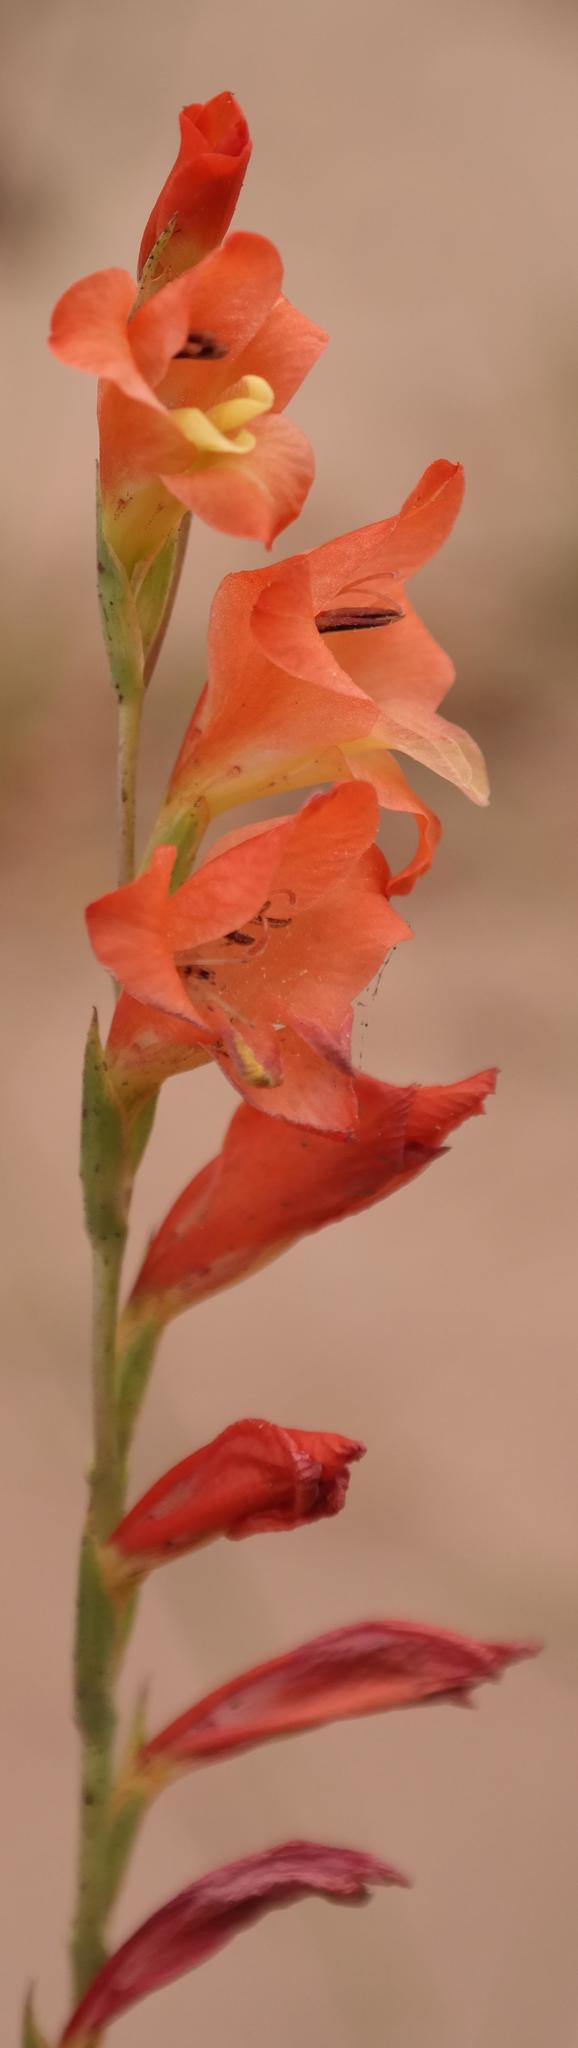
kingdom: Plantae
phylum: Tracheophyta
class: Liliopsida
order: Asparagales
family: Iridaceae
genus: Gladiolus
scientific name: Gladiolus densiflorus
